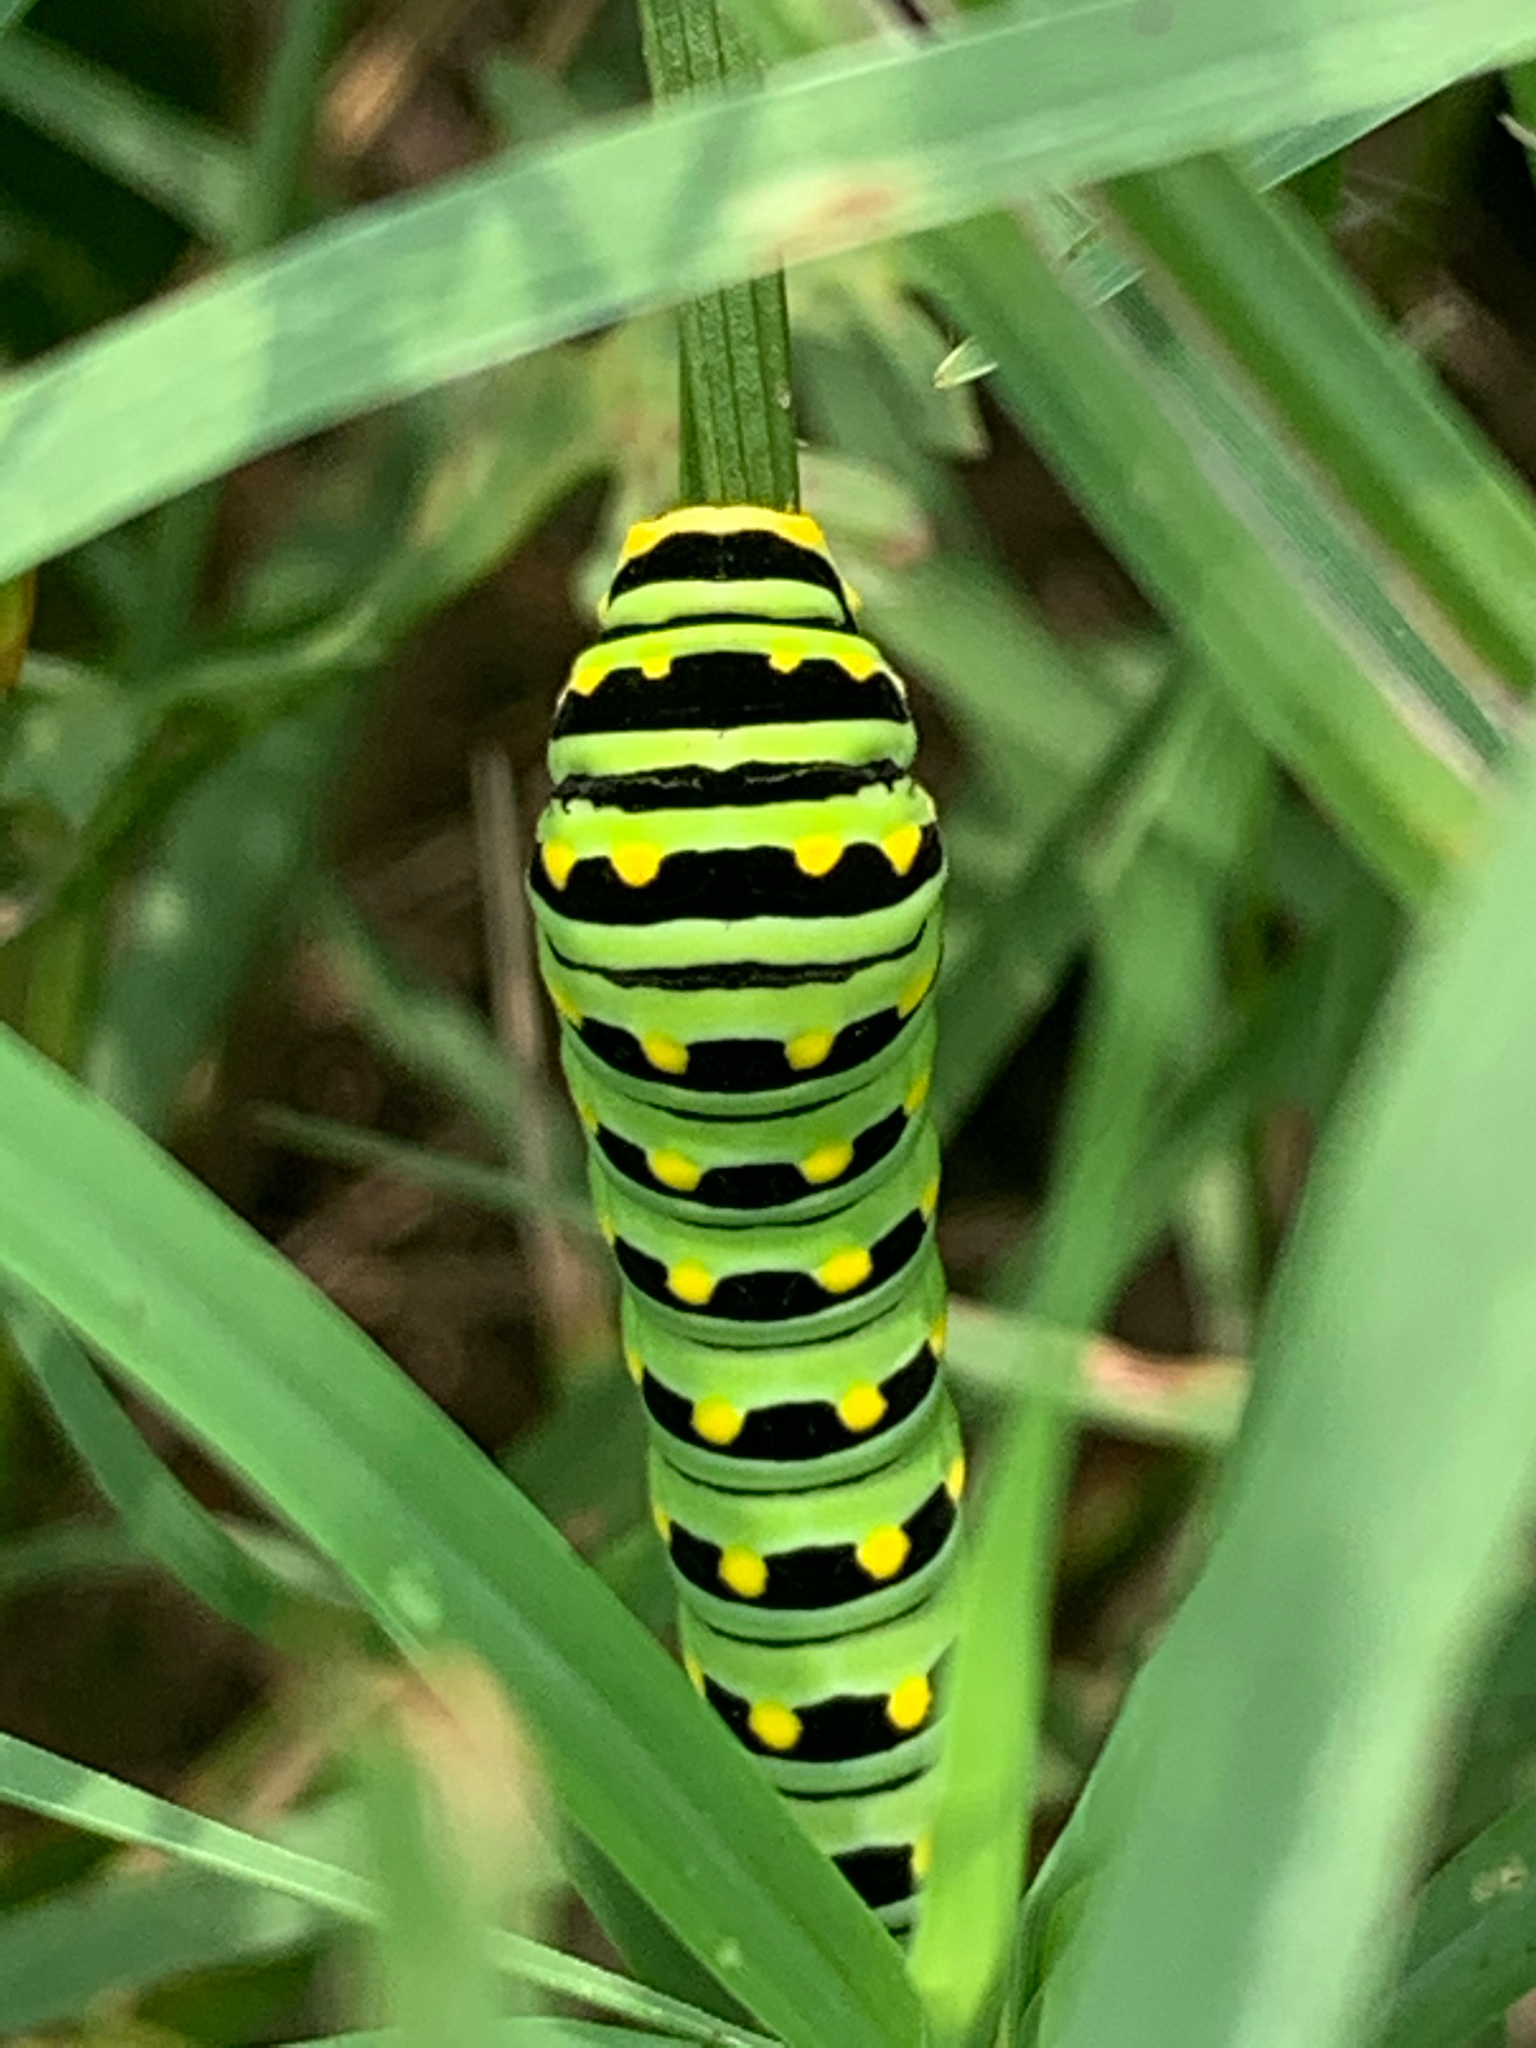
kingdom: Animalia
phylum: Arthropoda
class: Insecta
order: Lepidoptera
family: Papilionidae
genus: Papilio
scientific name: Papilio polyxenes
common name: Black swallowtail
